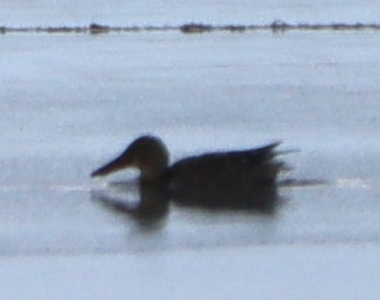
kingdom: Animalia
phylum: Chordata
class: Aves
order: Anseriformes
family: Anatidae
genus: Spatula
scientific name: Spatula clypeata
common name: Northern shoveler
